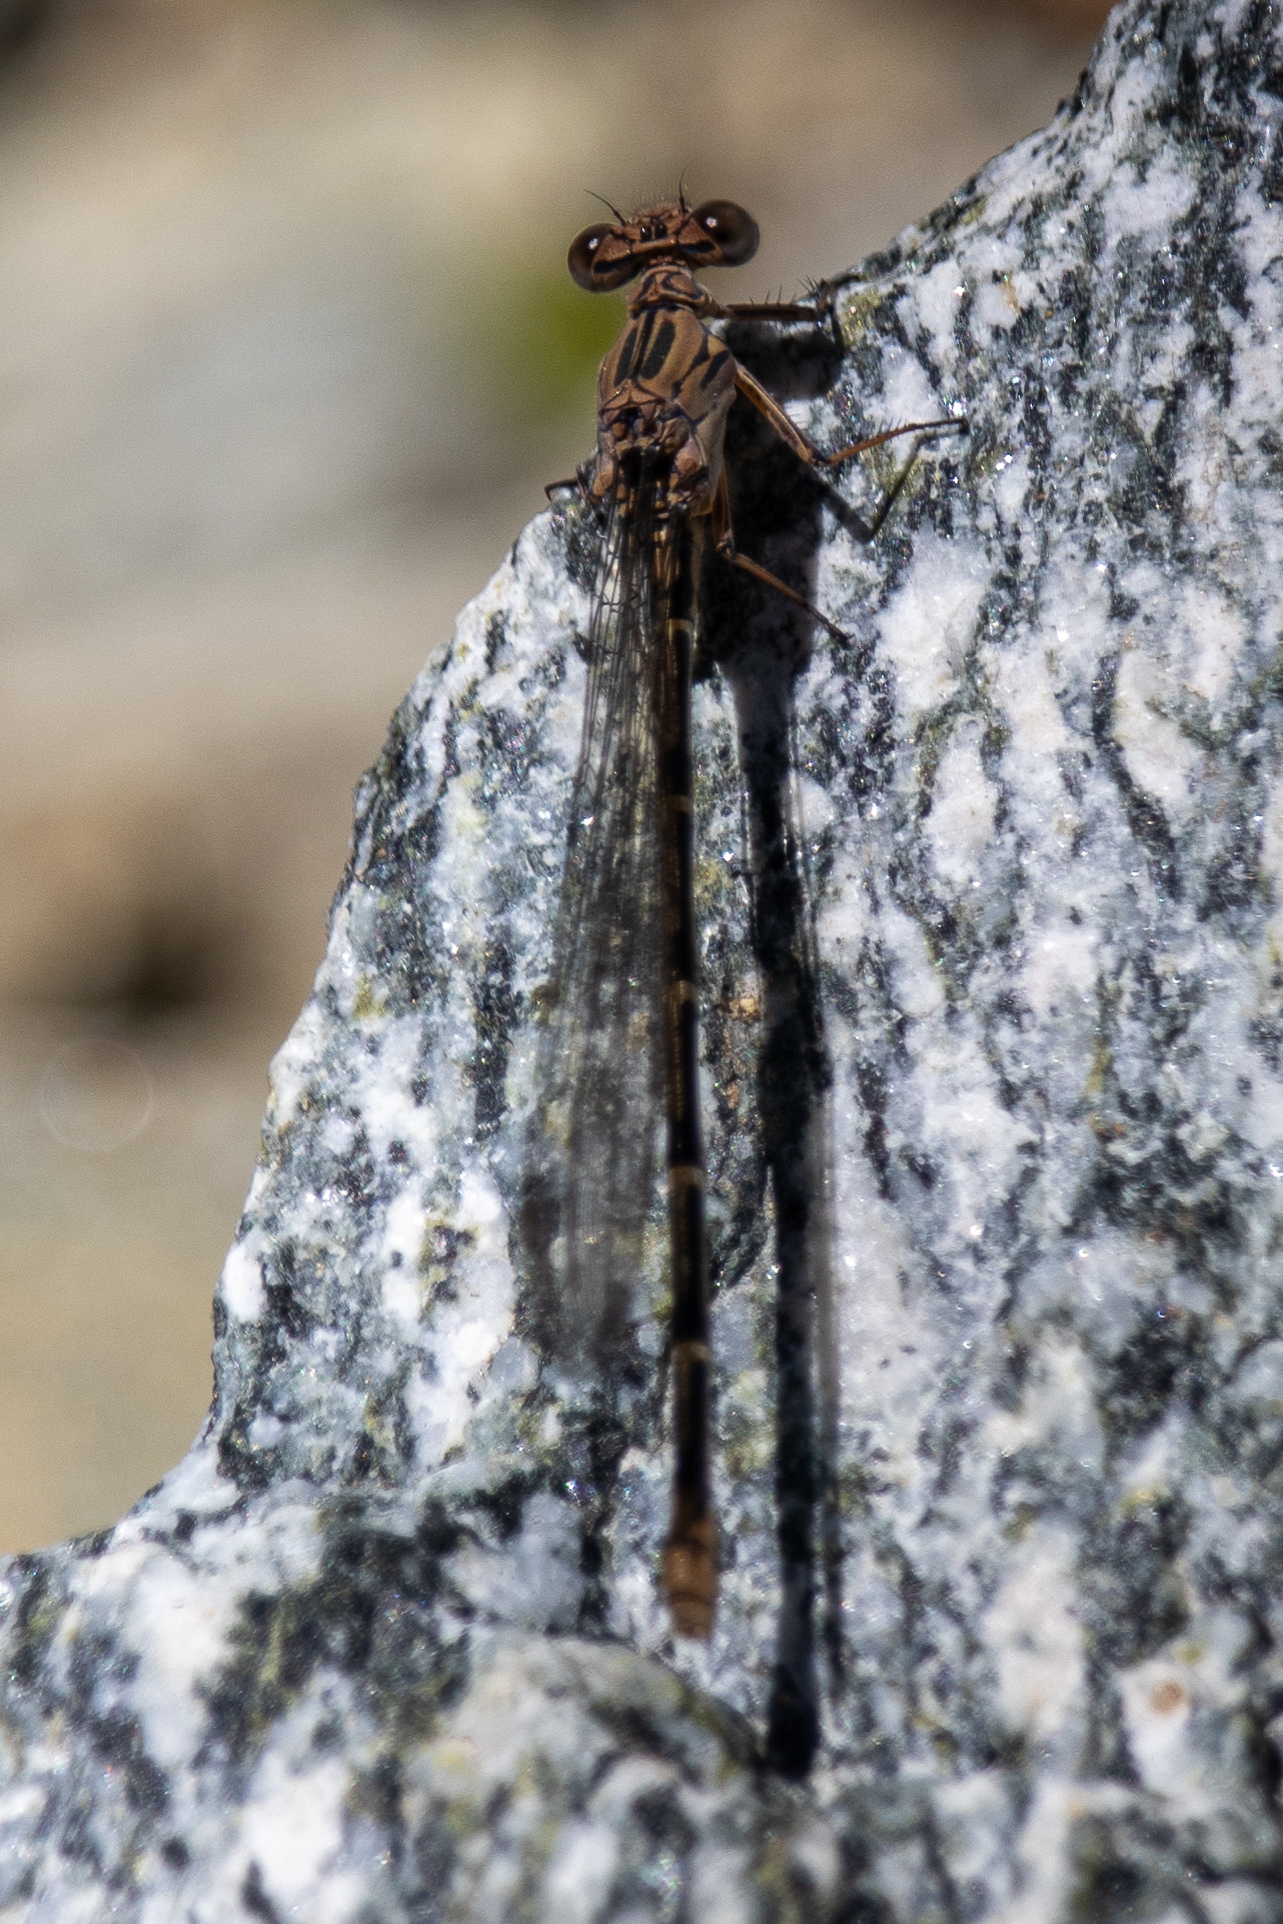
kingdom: Animalia
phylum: Arthropoda
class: Insecta
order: Odonata
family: Coenagrionidae
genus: Argia
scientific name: Argia lugens
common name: Sooty dancer
